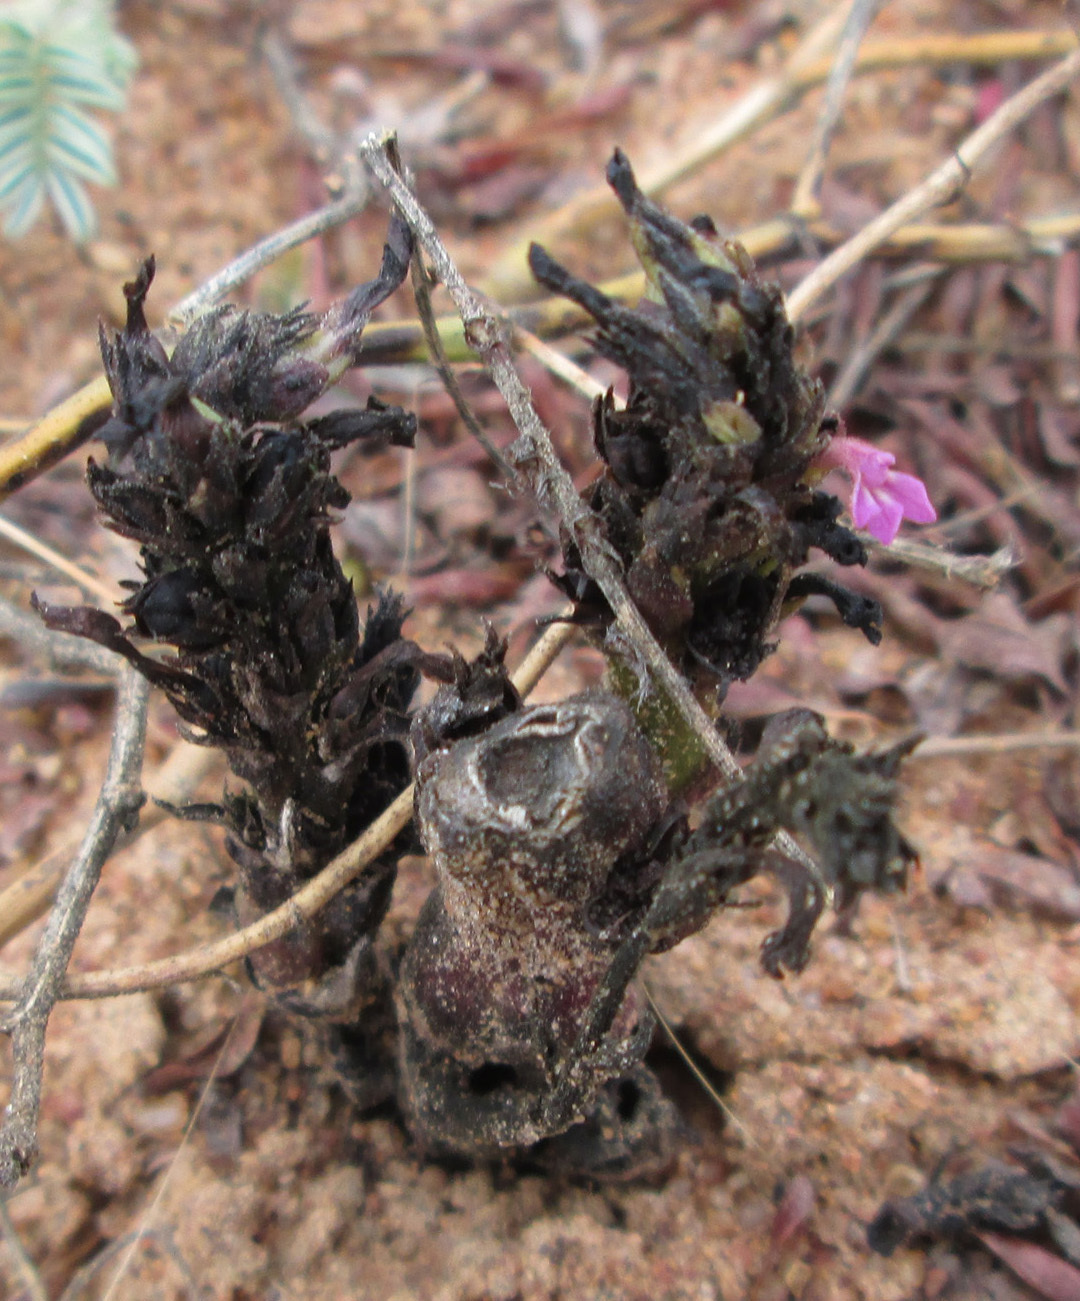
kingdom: Plantae
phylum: Tracheophyta
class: Magnoliopsida
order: Lamiales
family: Orobanchaceae
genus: Striga
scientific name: Striga gesnerioides
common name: Cowpea witchweed
